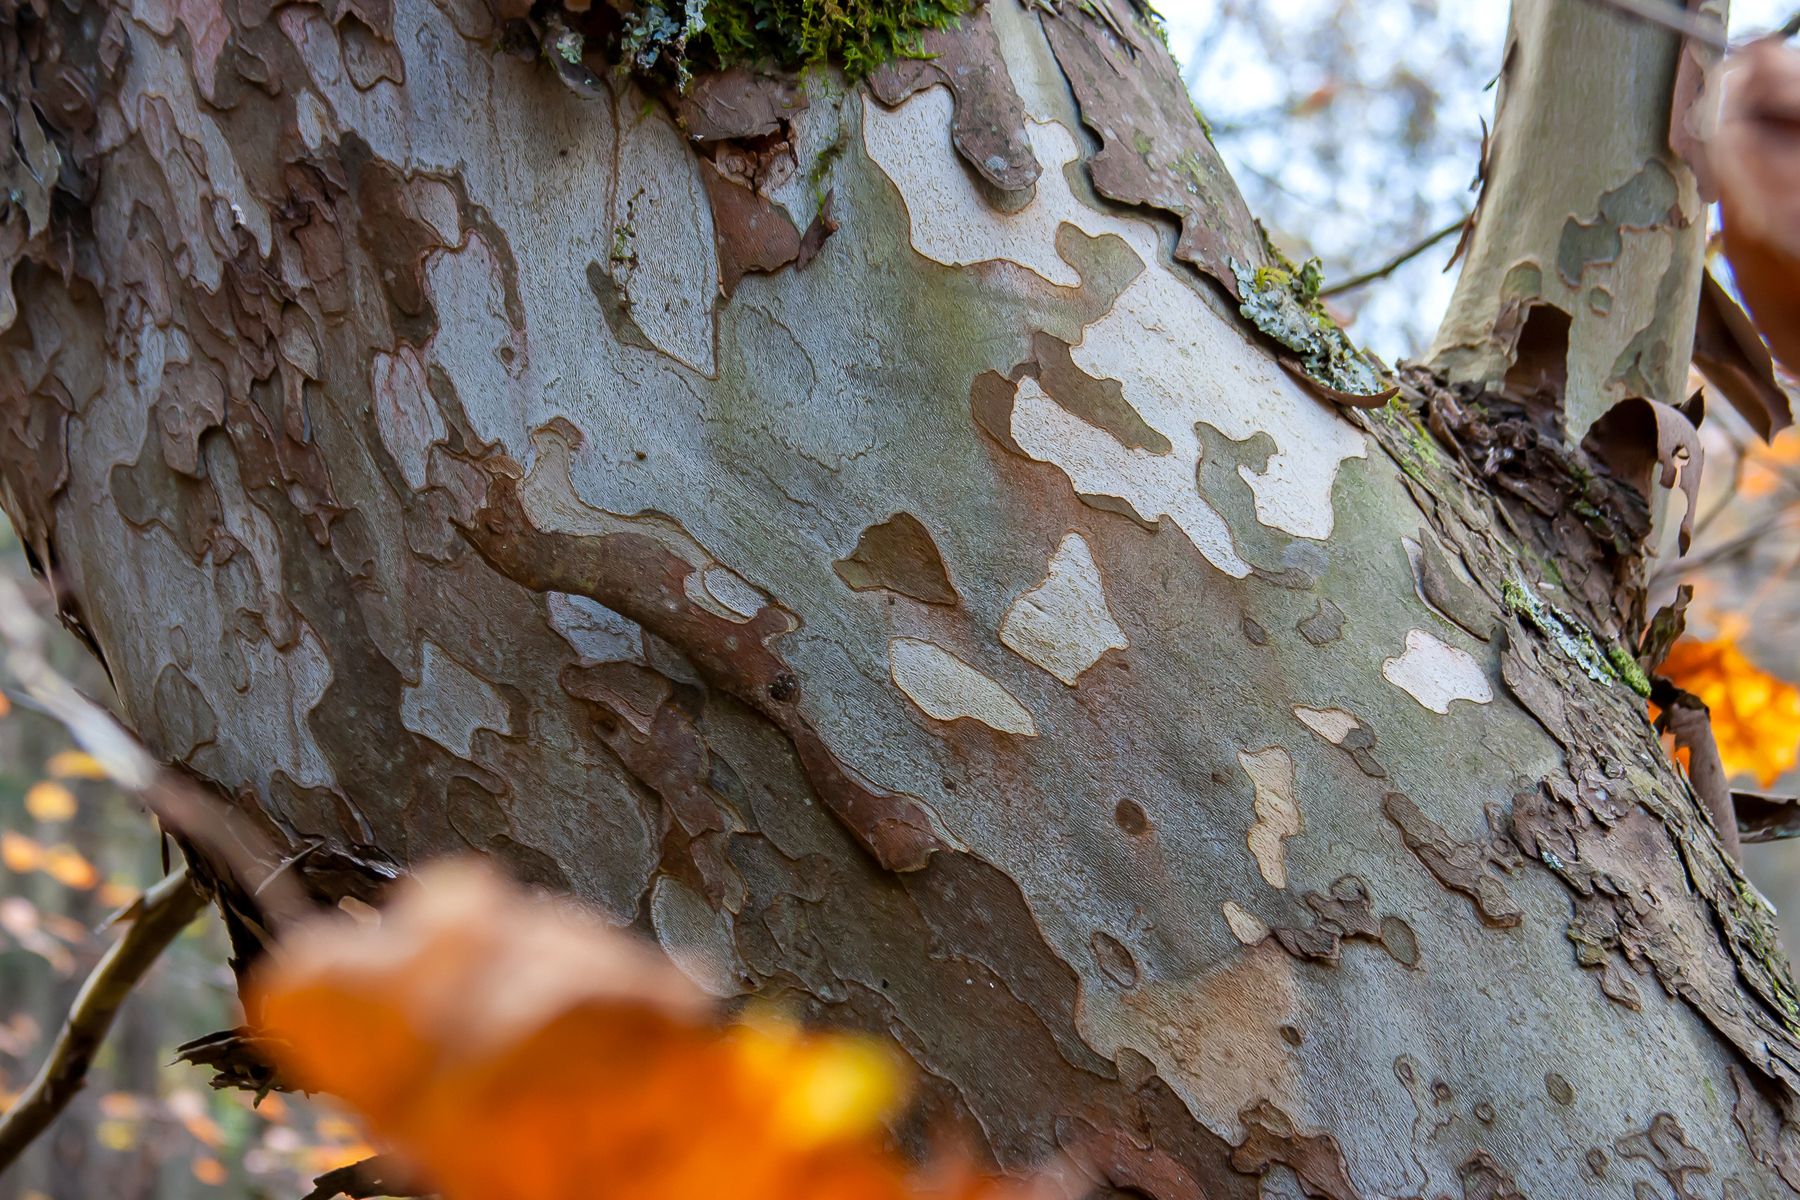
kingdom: Plantae
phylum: Tracheophyta
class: Magnoliopsida
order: Proteales
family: Platanaceae
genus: Platanus
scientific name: Platanus occidentalis
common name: American sycamore
